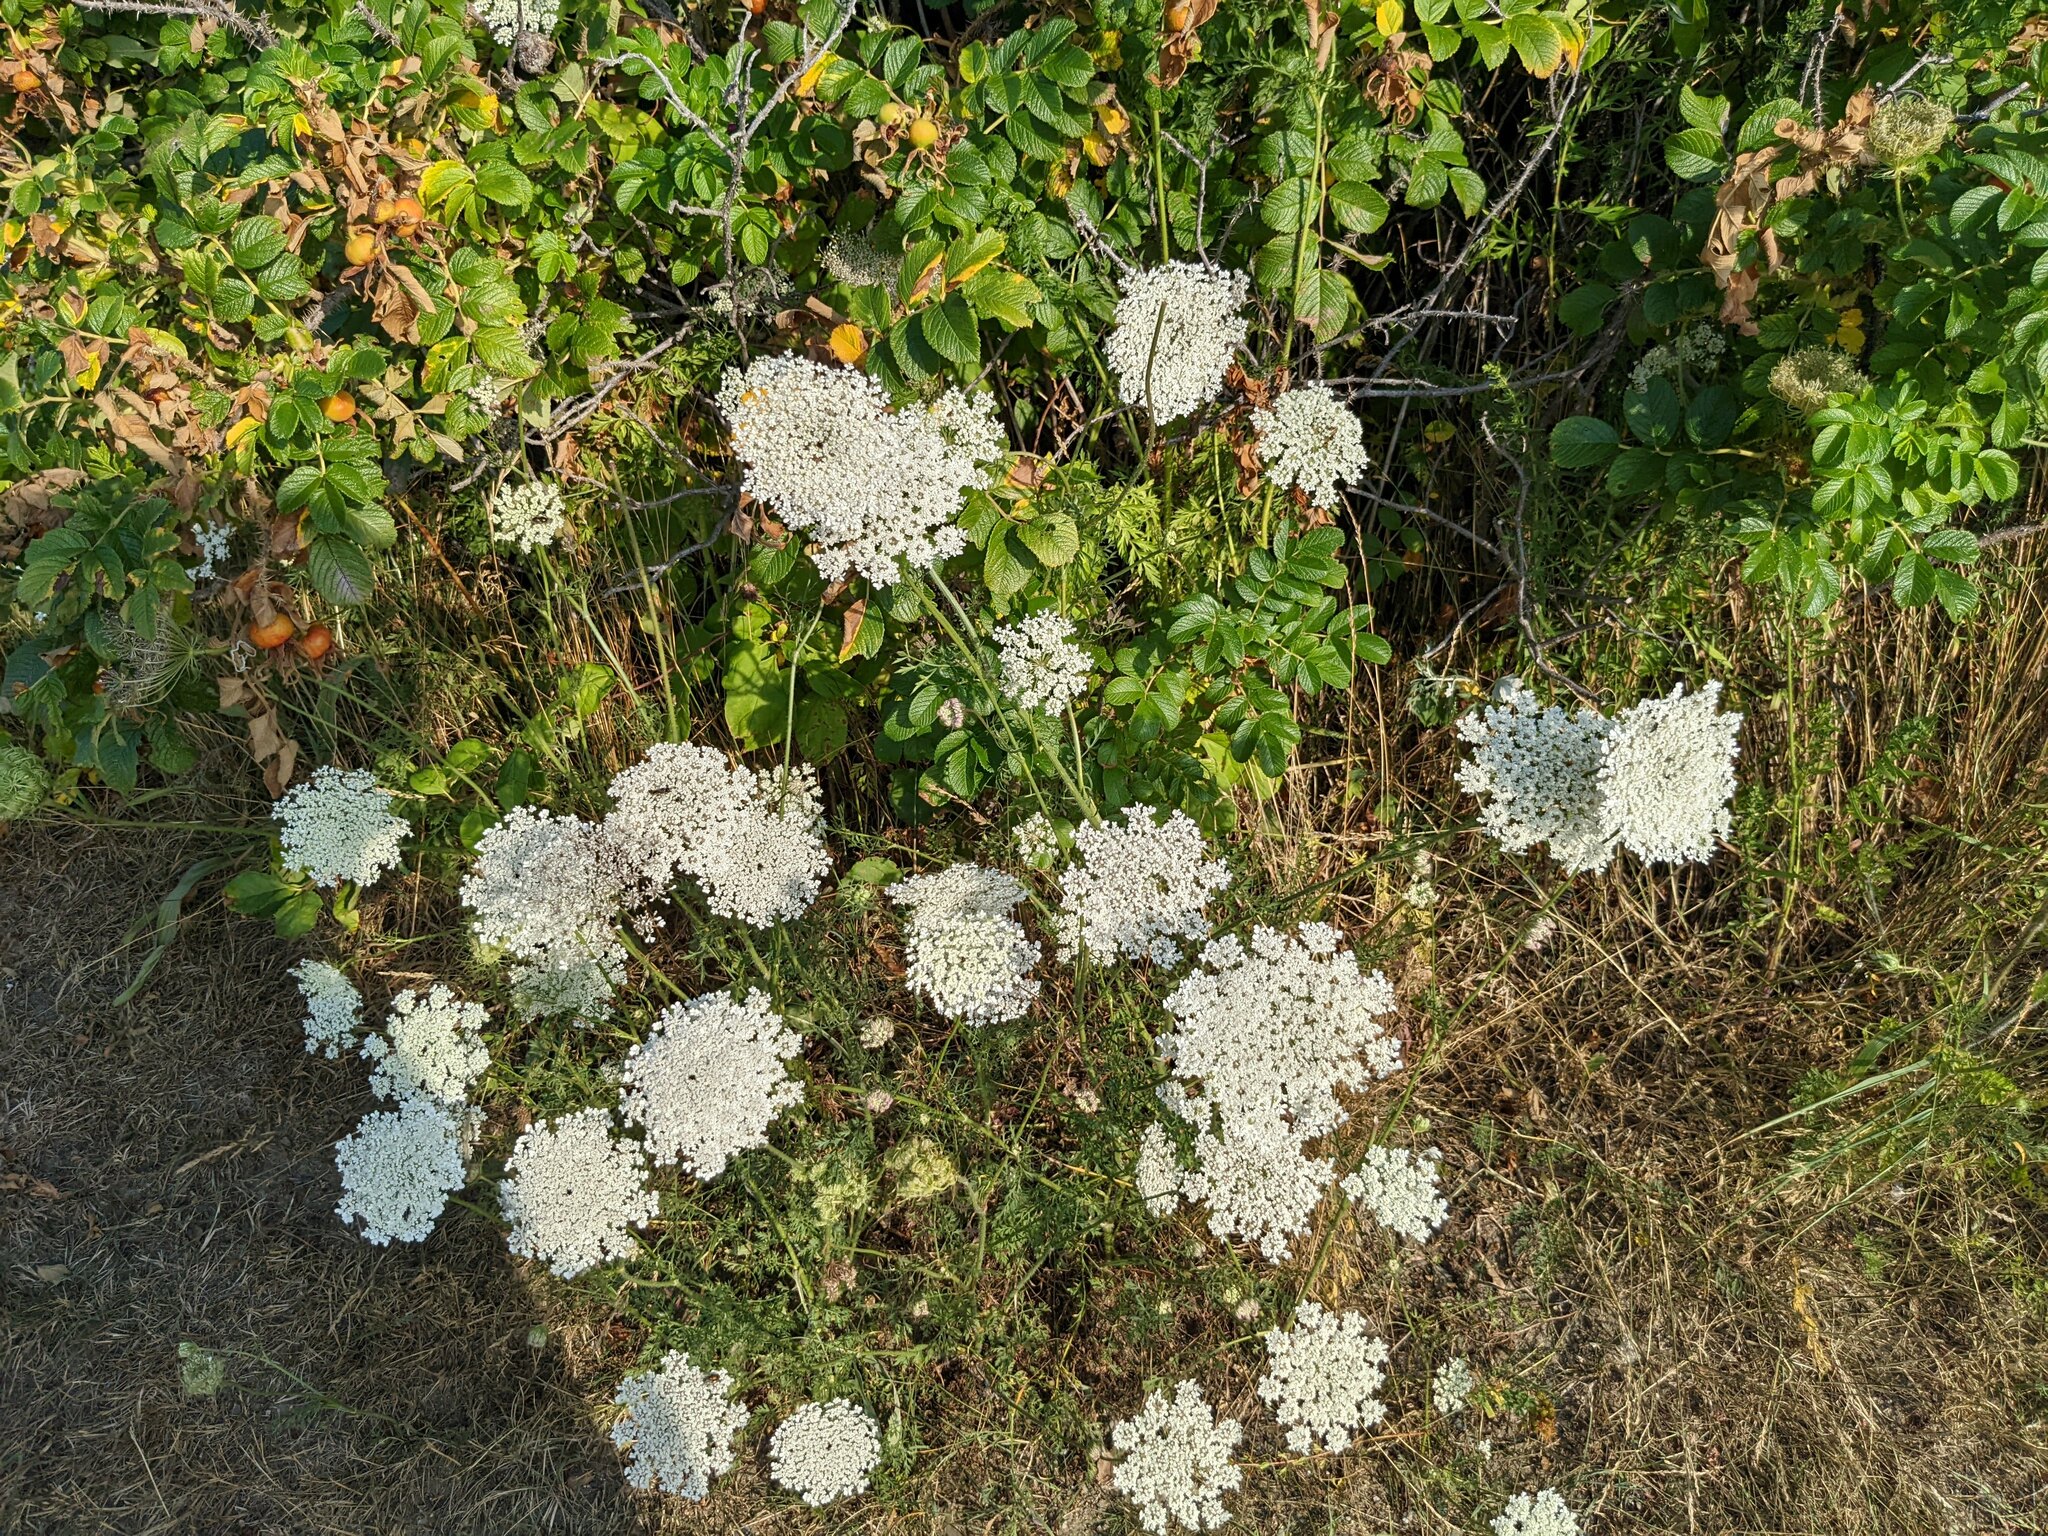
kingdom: Plantae
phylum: Tracheophyta
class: Magnoliopsida
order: Apiales
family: Apiaceae
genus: Daucus
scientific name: Daucus carota
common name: Wild carrot
